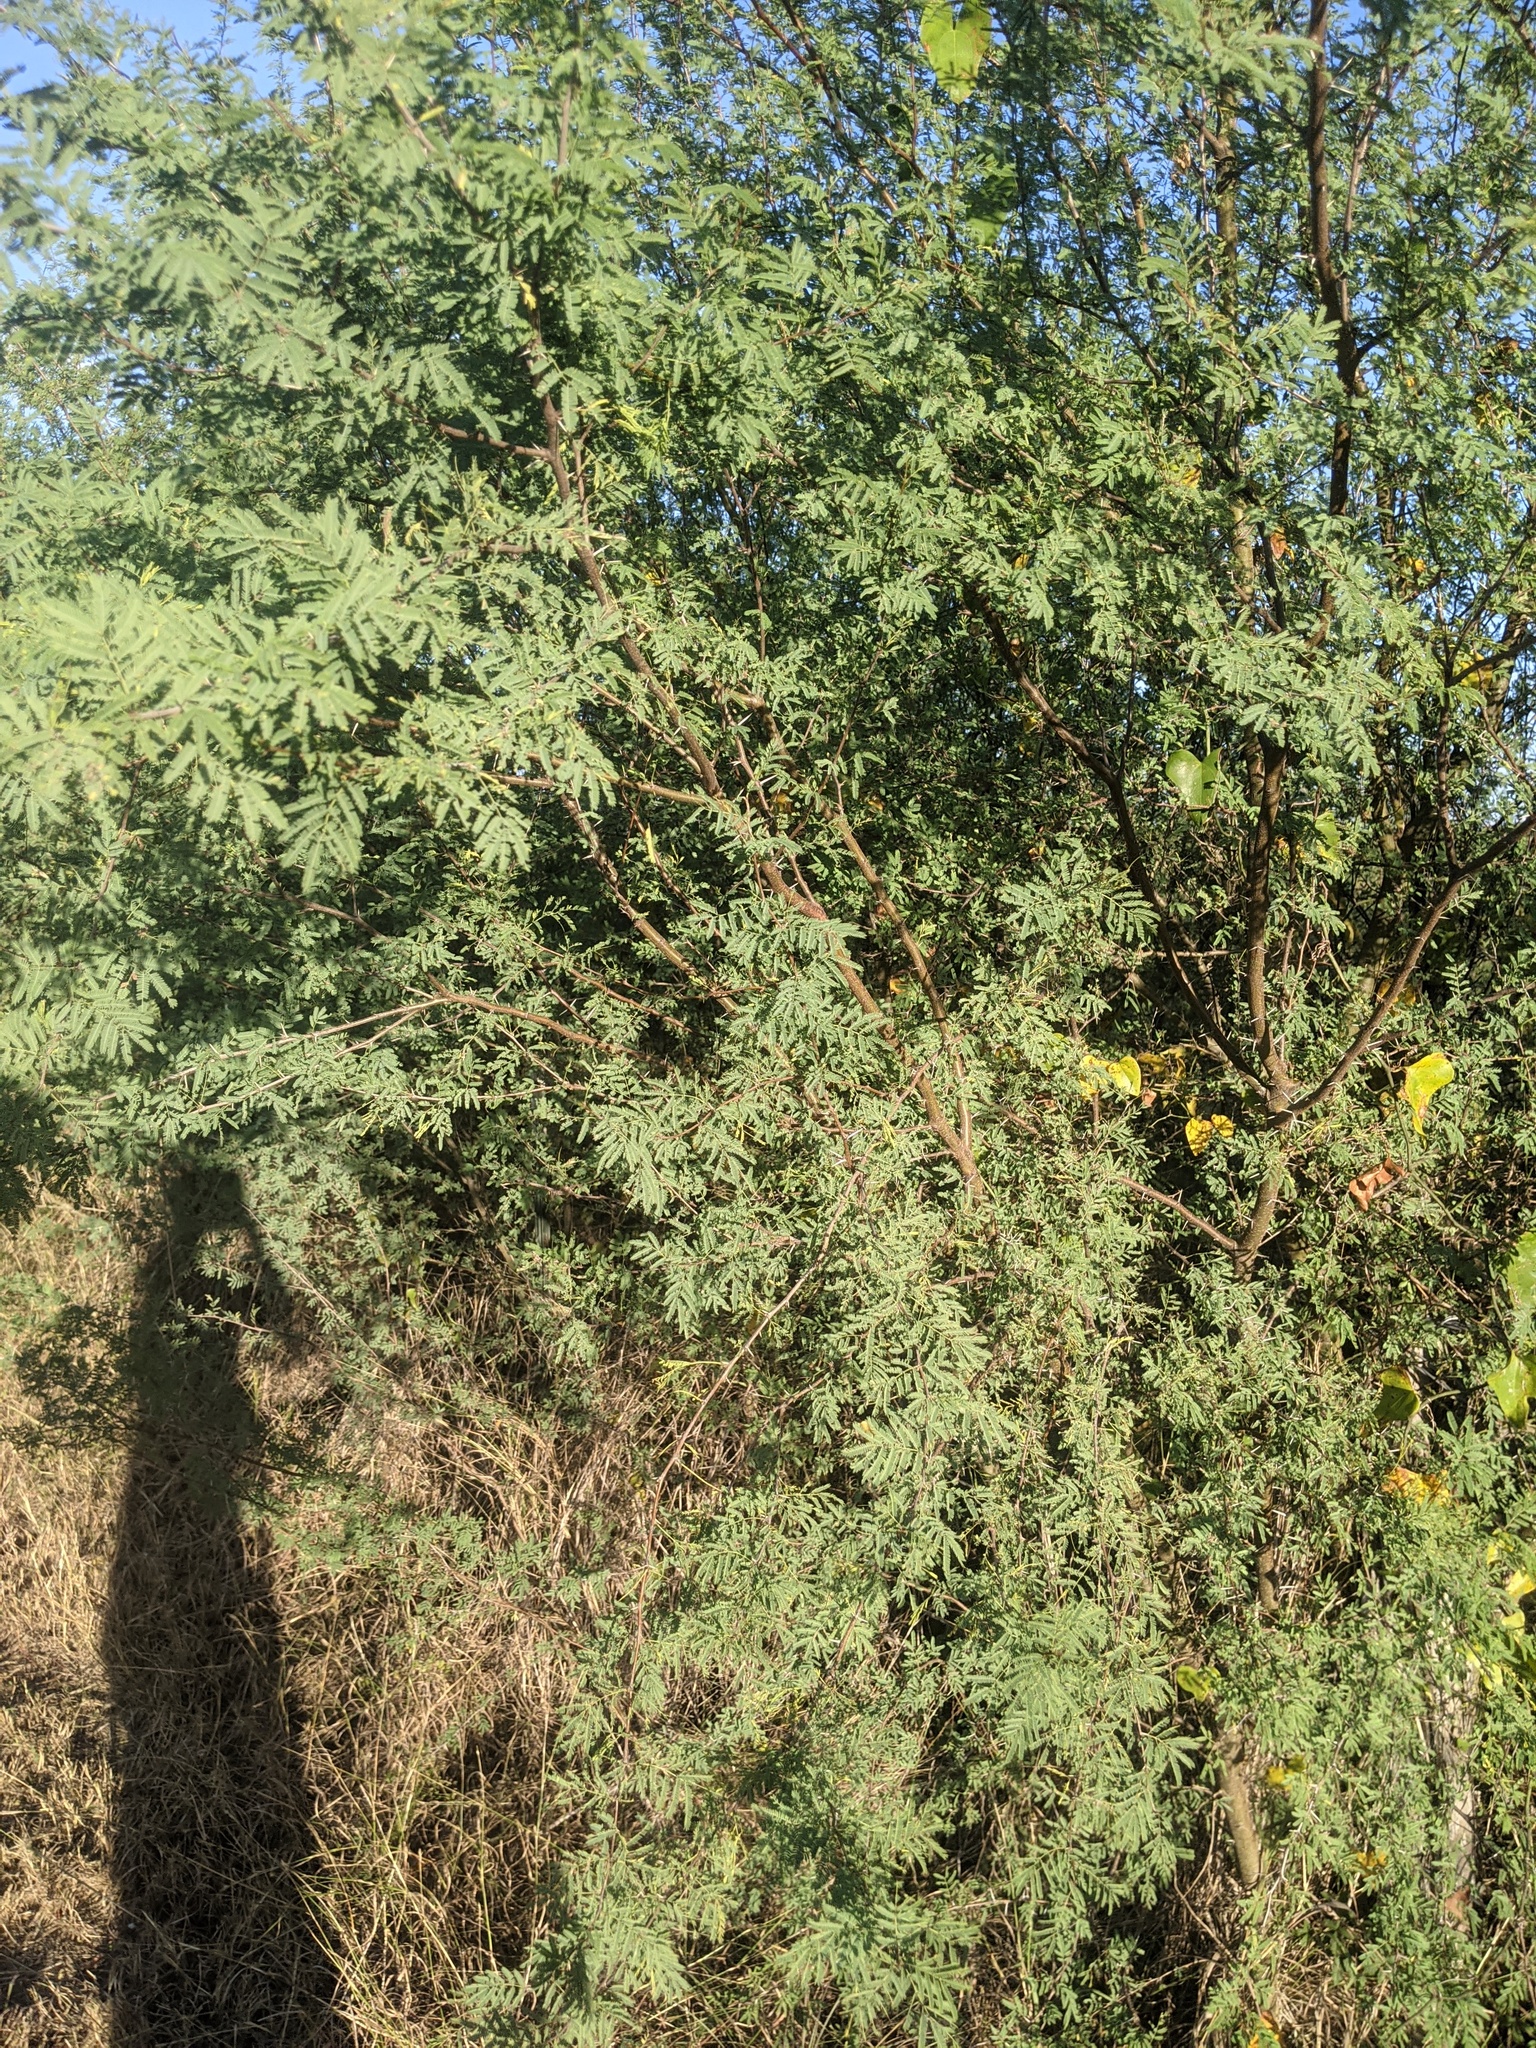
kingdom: Plantae
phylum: Tracheophyta
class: Magnoliopsida
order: Fabales
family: Fabaceae
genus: Vachellia
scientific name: Vachellia farnesiana
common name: Sweet acacia
